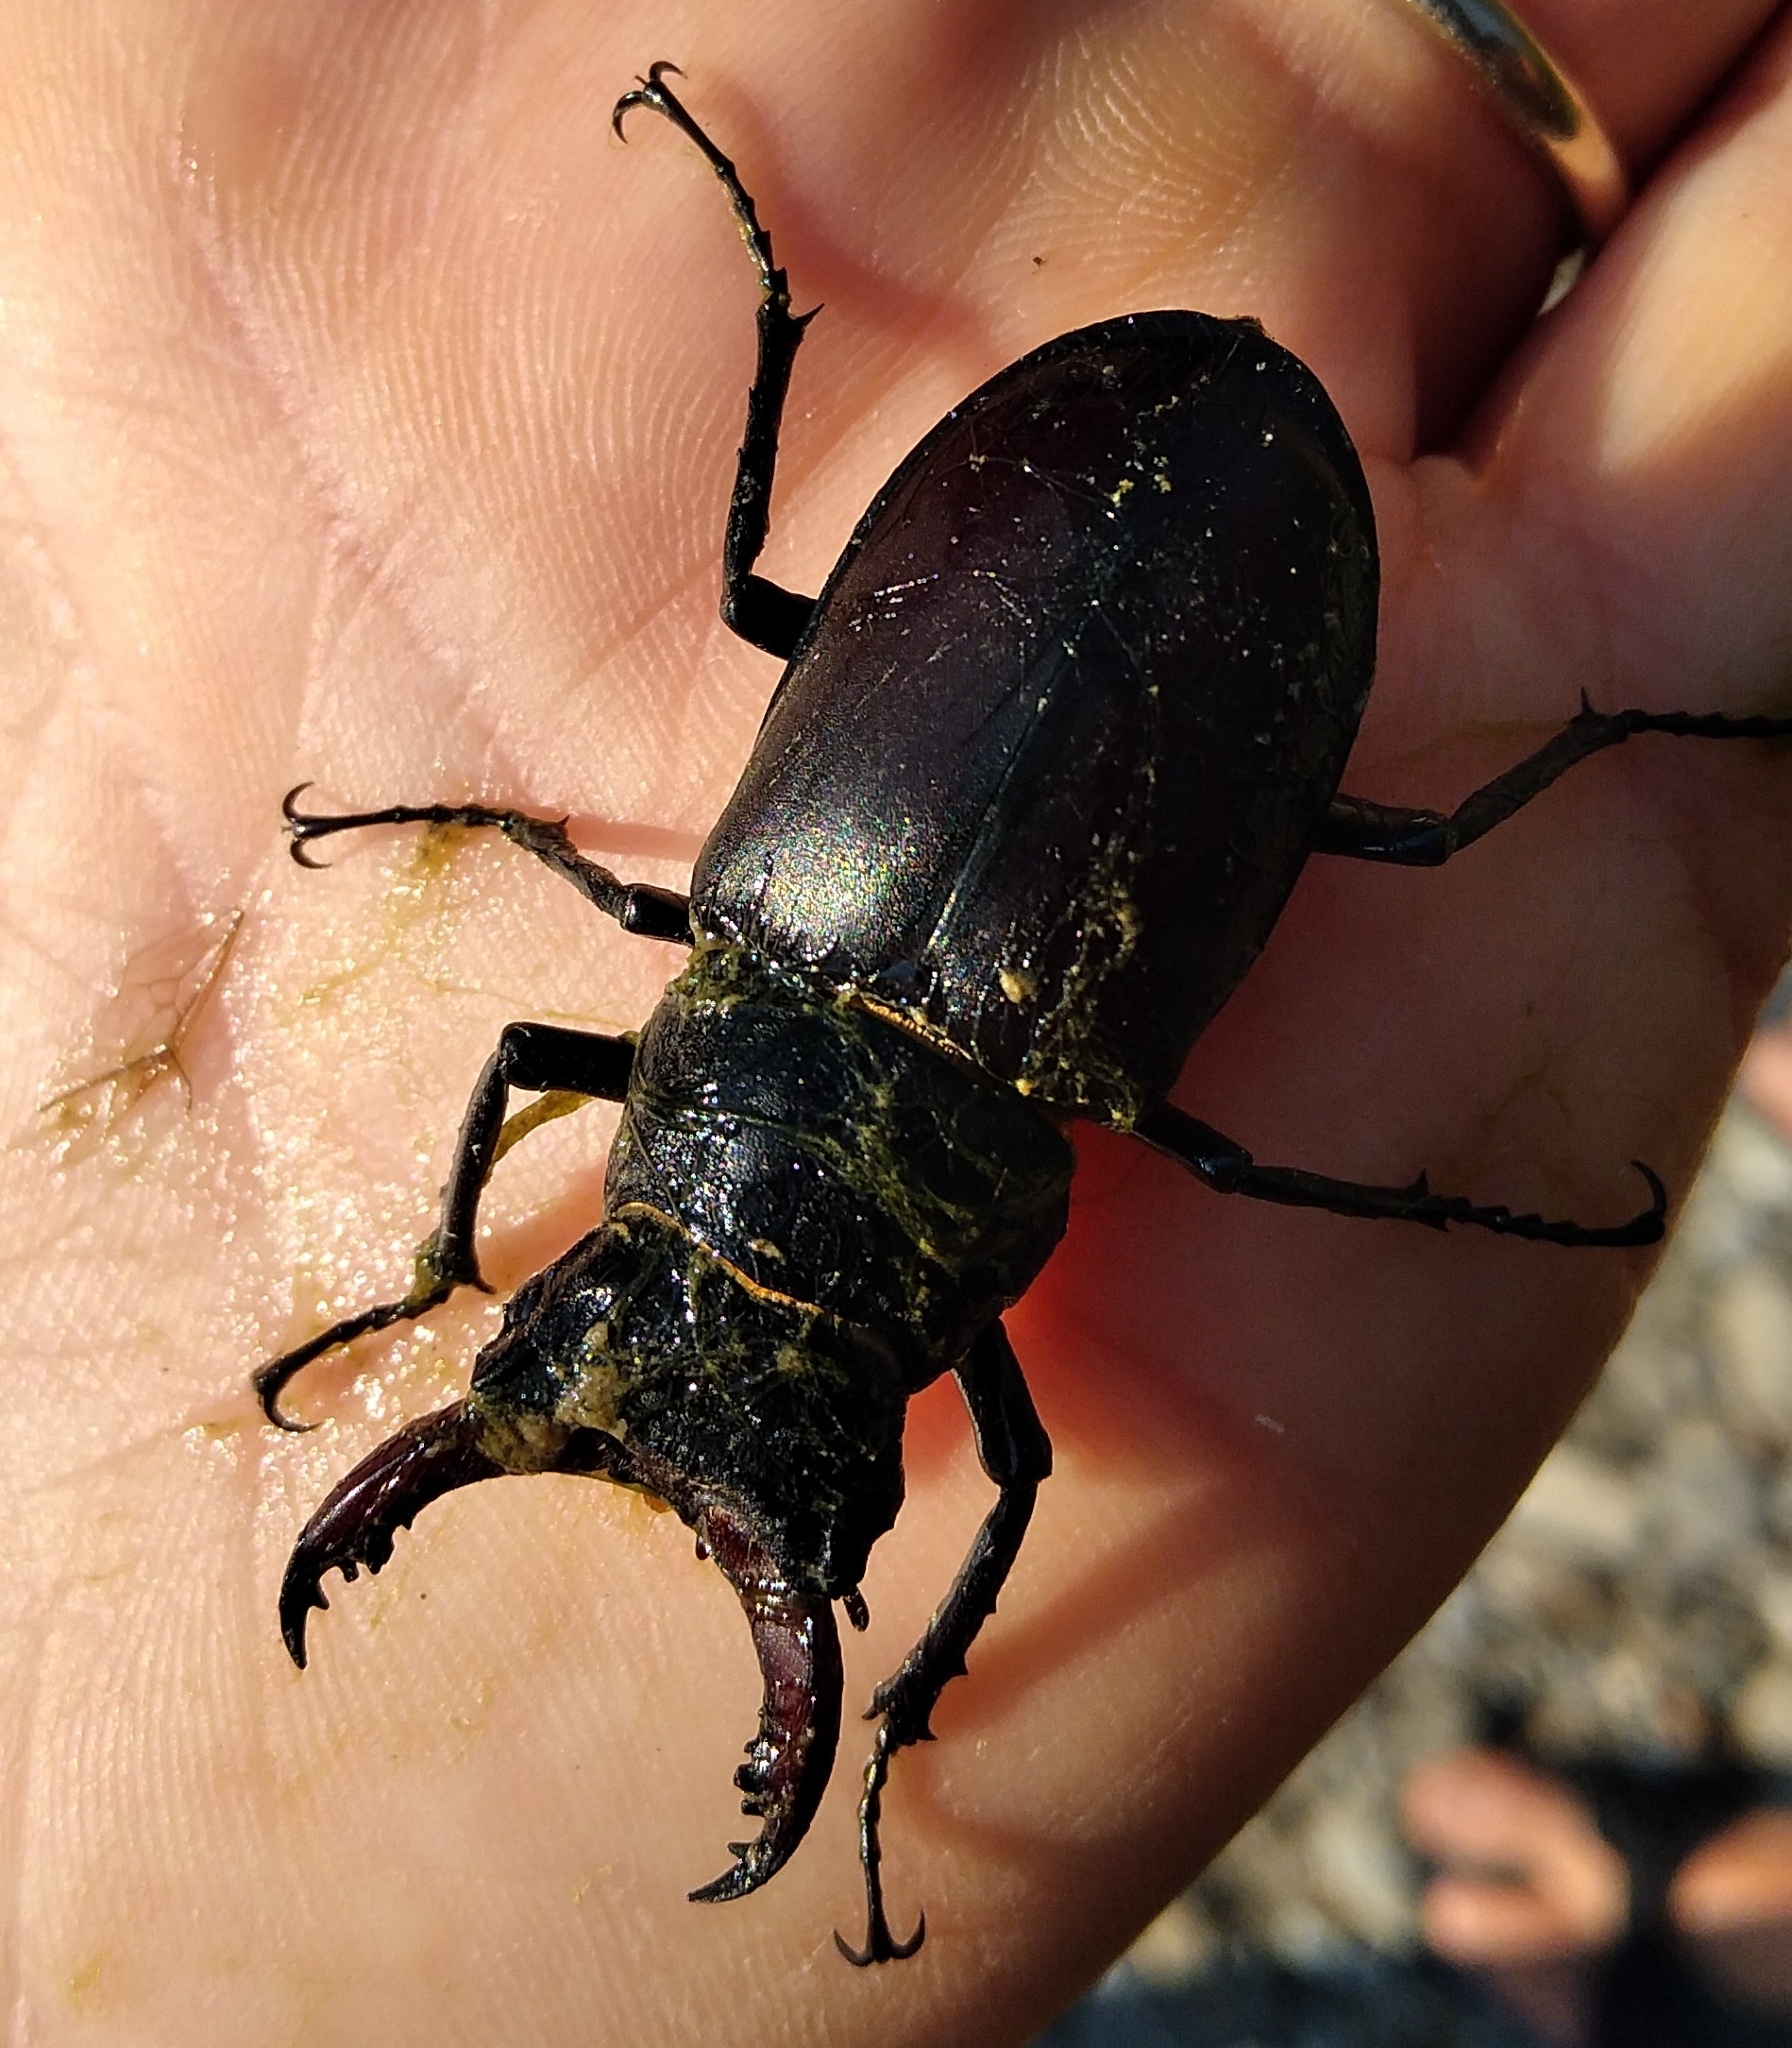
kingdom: Animalia
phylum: Arthropoda
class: Insecta
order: Coleoptera
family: Lucanidae
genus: Lucanus
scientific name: Lucanus cervus
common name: Stag beetle
